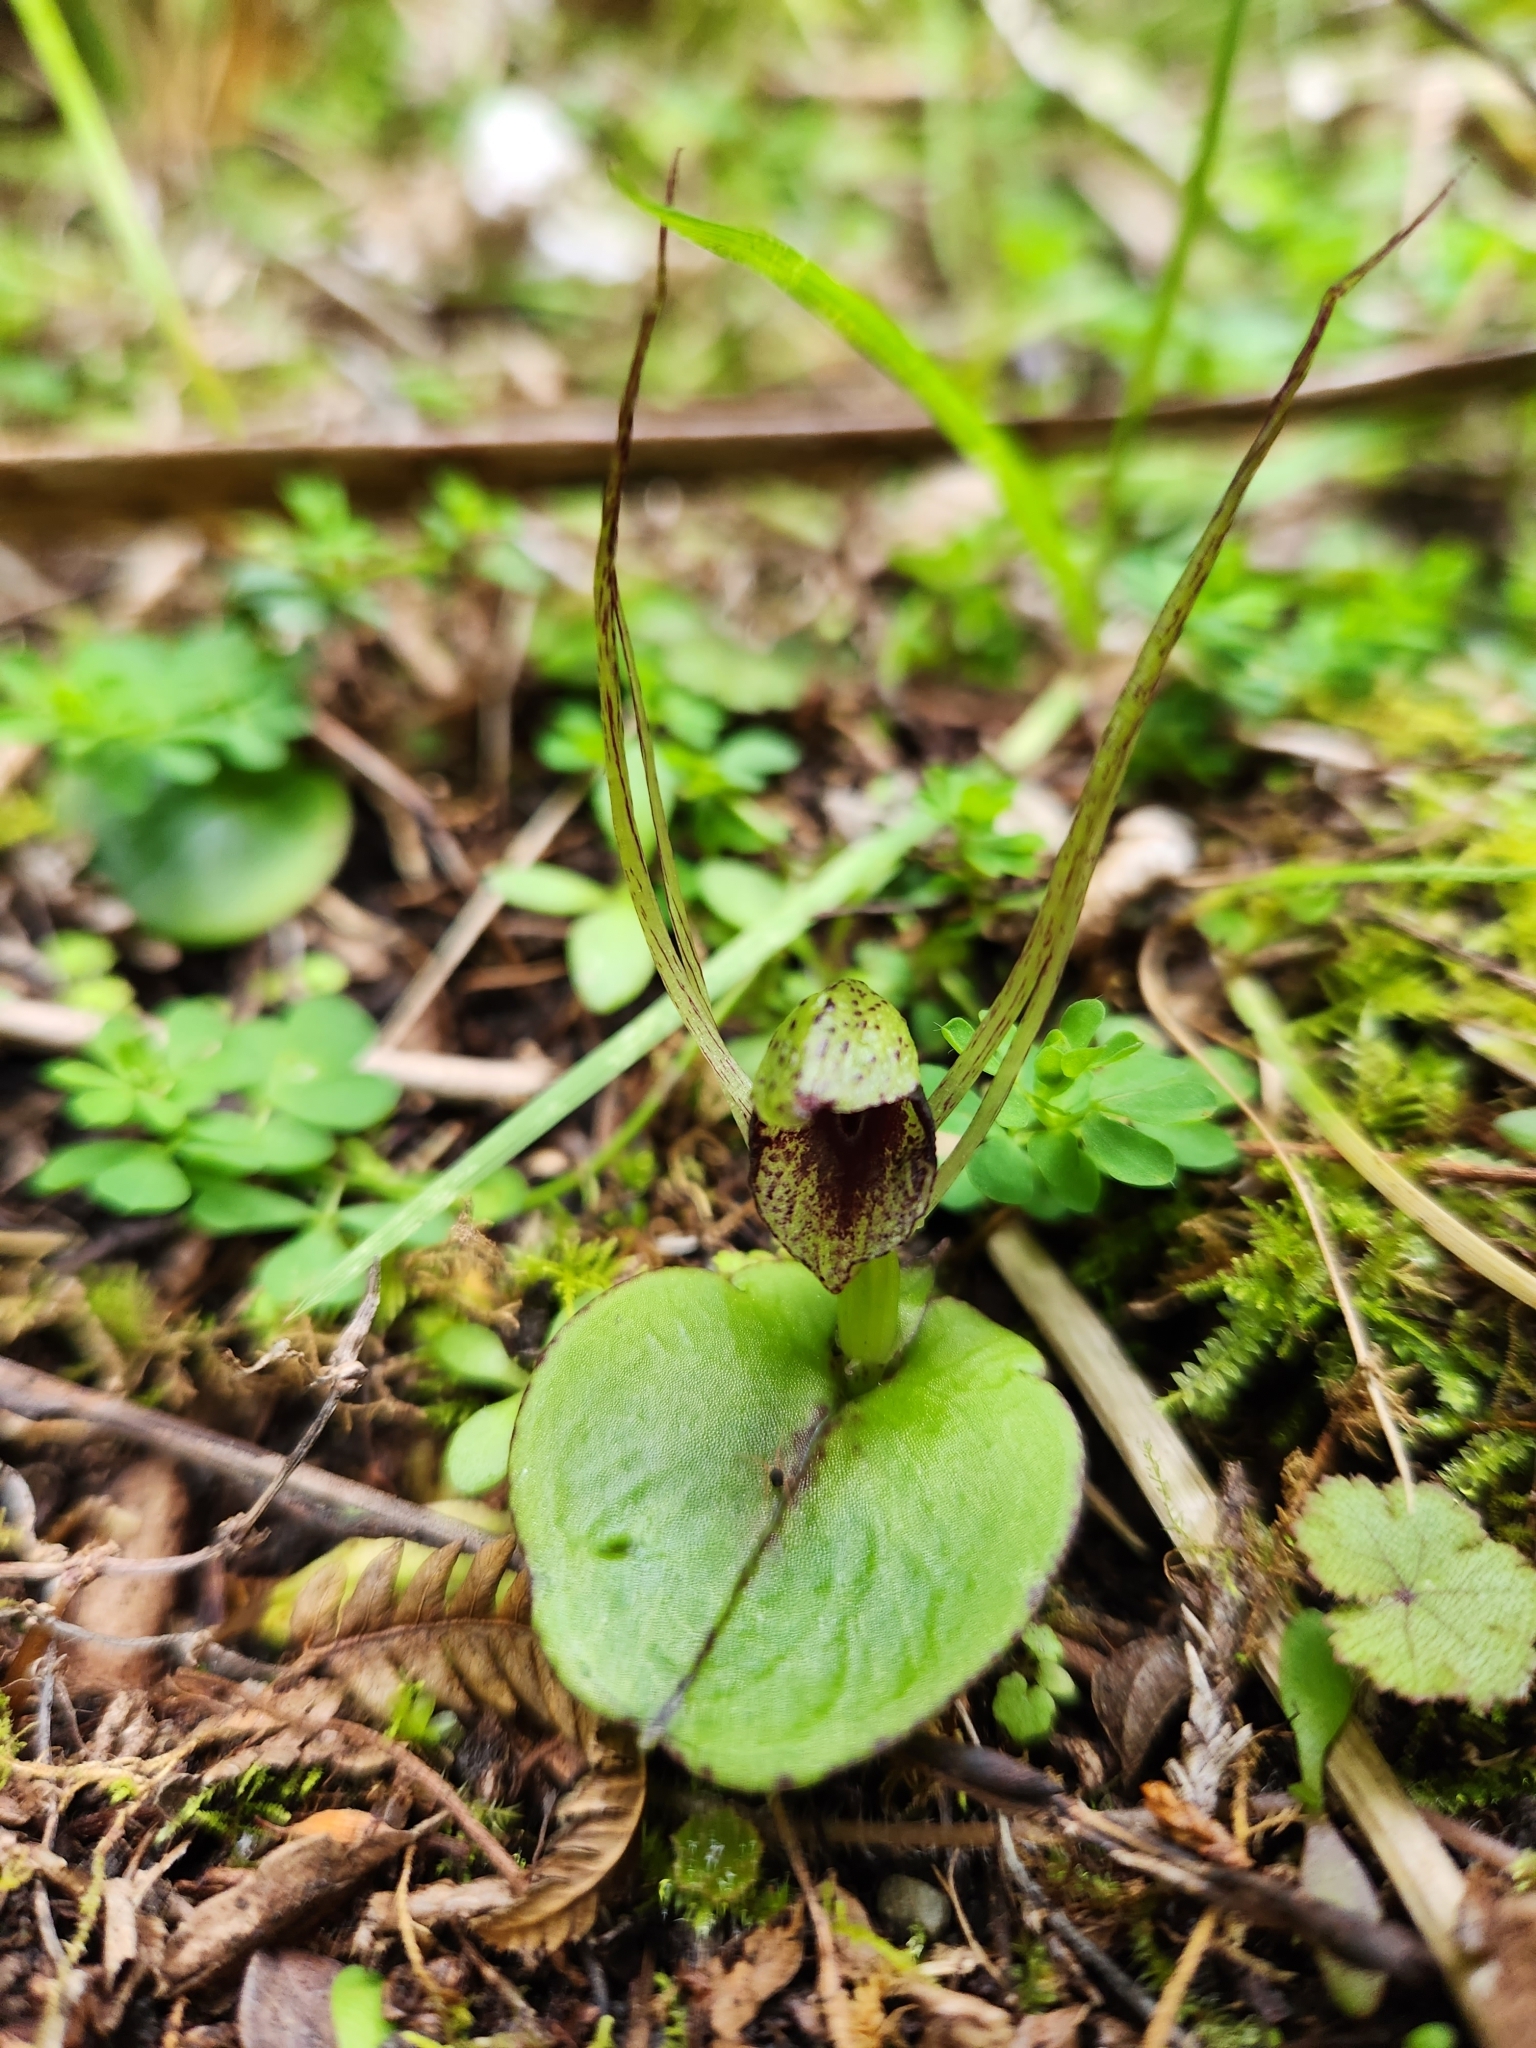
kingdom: Plantae
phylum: Tracheophyta
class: Liliopsida
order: Asparagales
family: Orchidaceae
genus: Corybas
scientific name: Corybas hatchii
